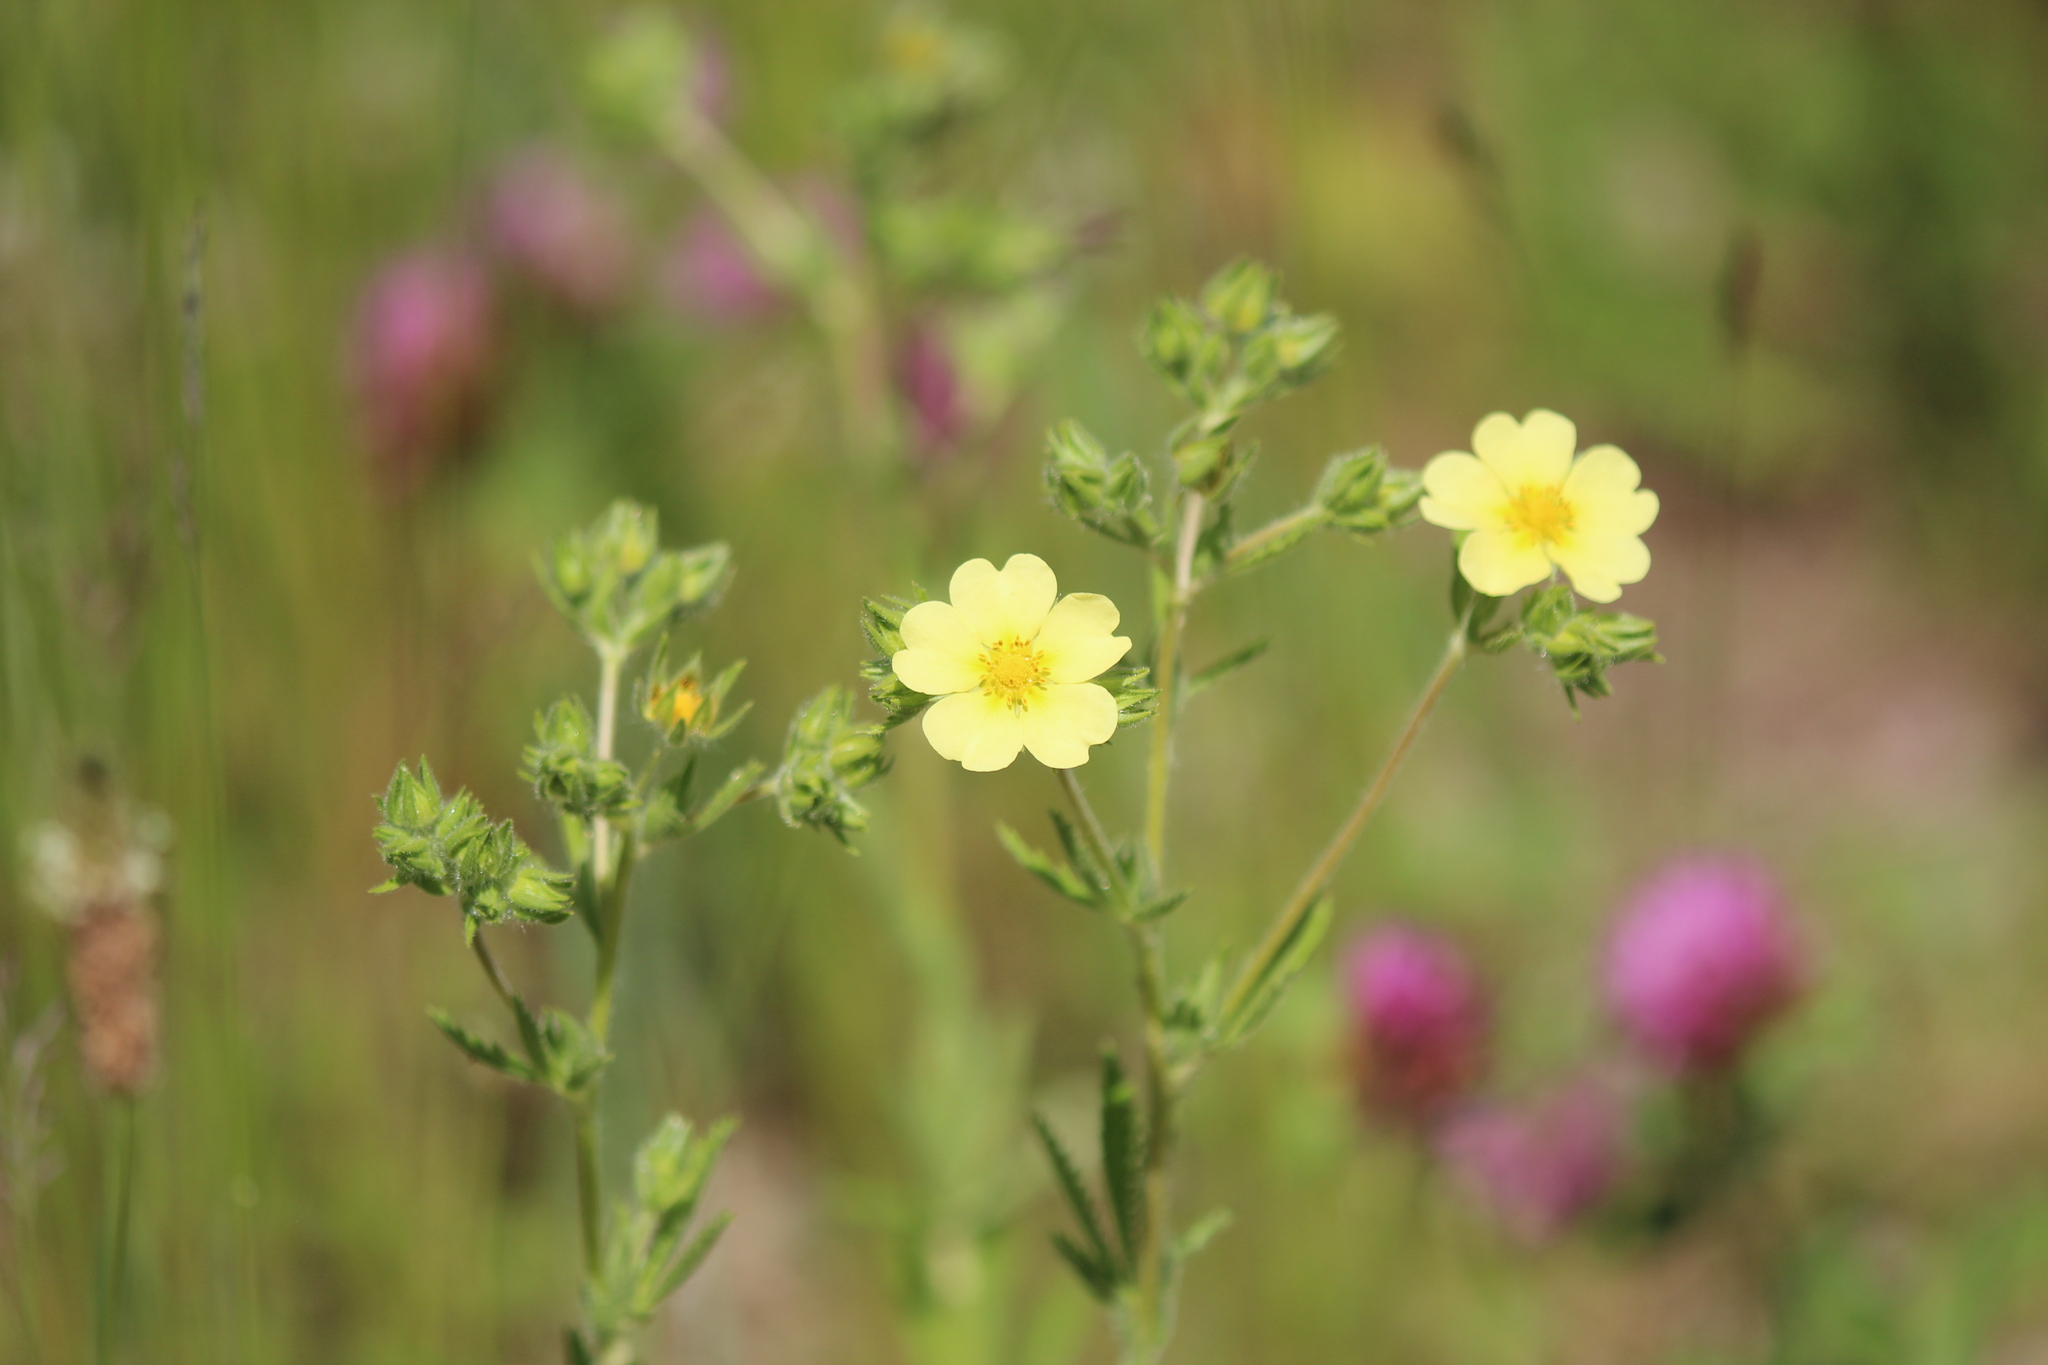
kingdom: Plantae
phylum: Tracheophyta
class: Magnoliopsida
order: Rosales
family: Rosaceae
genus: Potentilla
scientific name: Potentilla recta
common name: Sulphur cinquefoil
